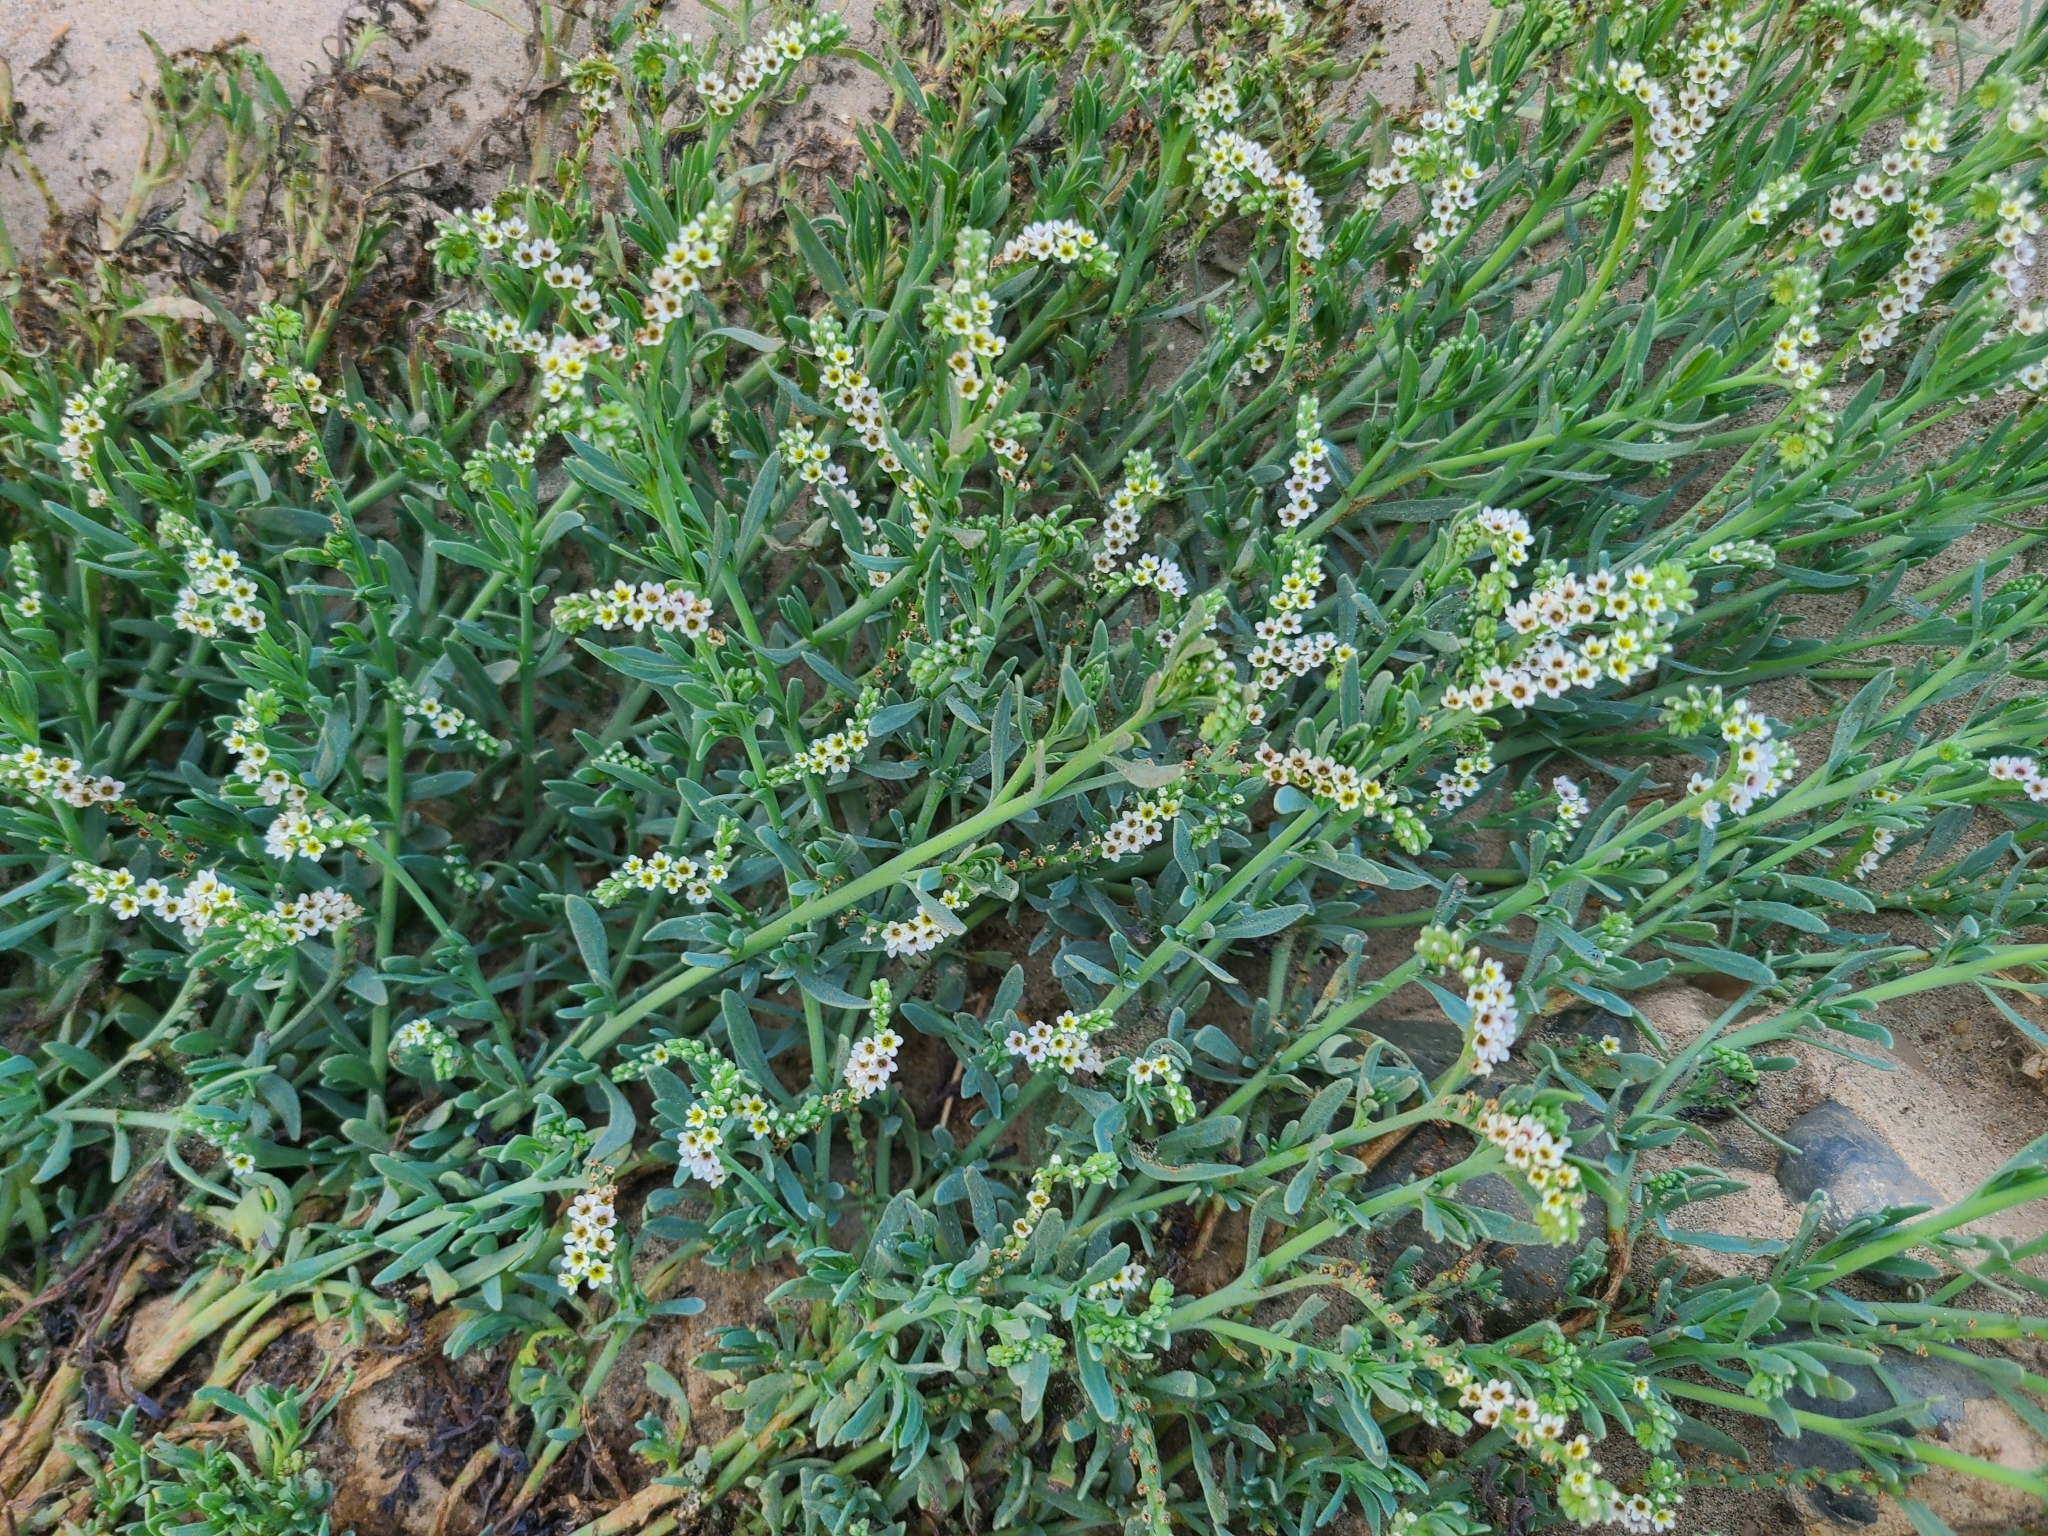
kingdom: Plantae
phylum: Tracheophyta
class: Magnoliopsida
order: Boraginales
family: Heliotropiaceae
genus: Heliotropium
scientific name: Heliotropium curassavicum
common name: Seaside heliotrope
